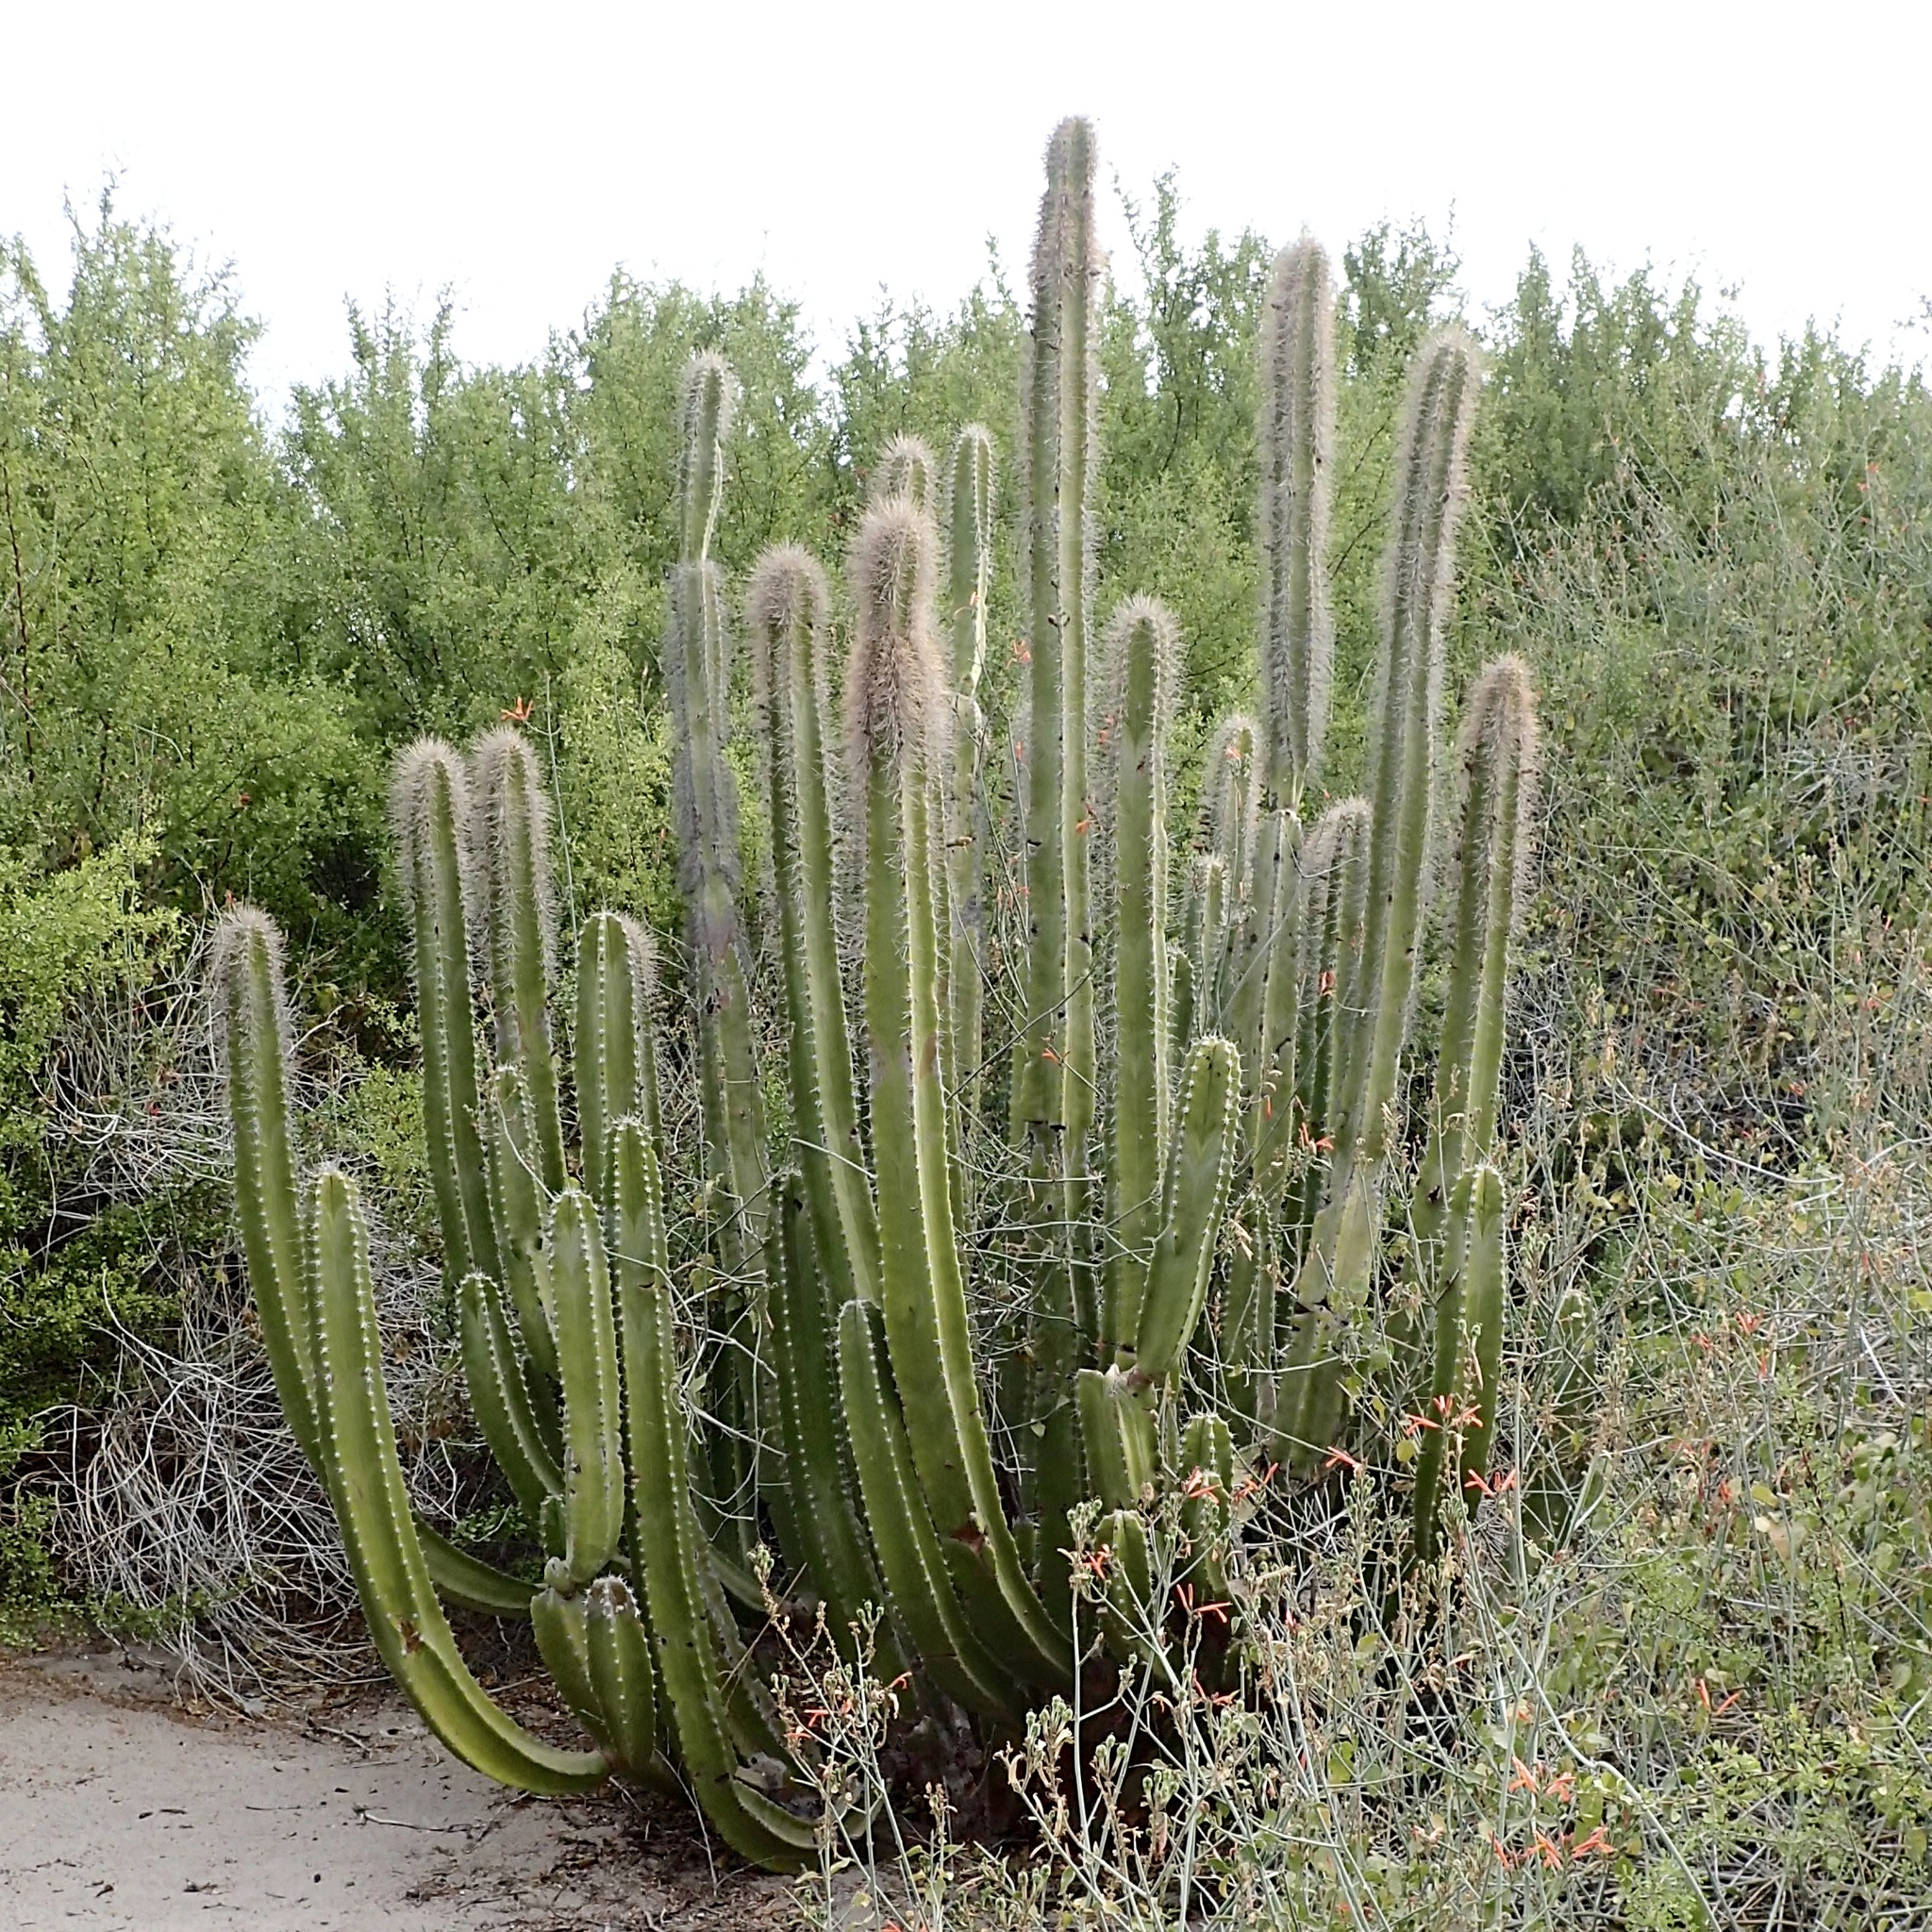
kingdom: Plantae
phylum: Tracheophyta
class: Magnoliopsida
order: Caryophyllales
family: Cactaceae
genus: Pachycereus
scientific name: Pachycereus schottii
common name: Senita cactus
